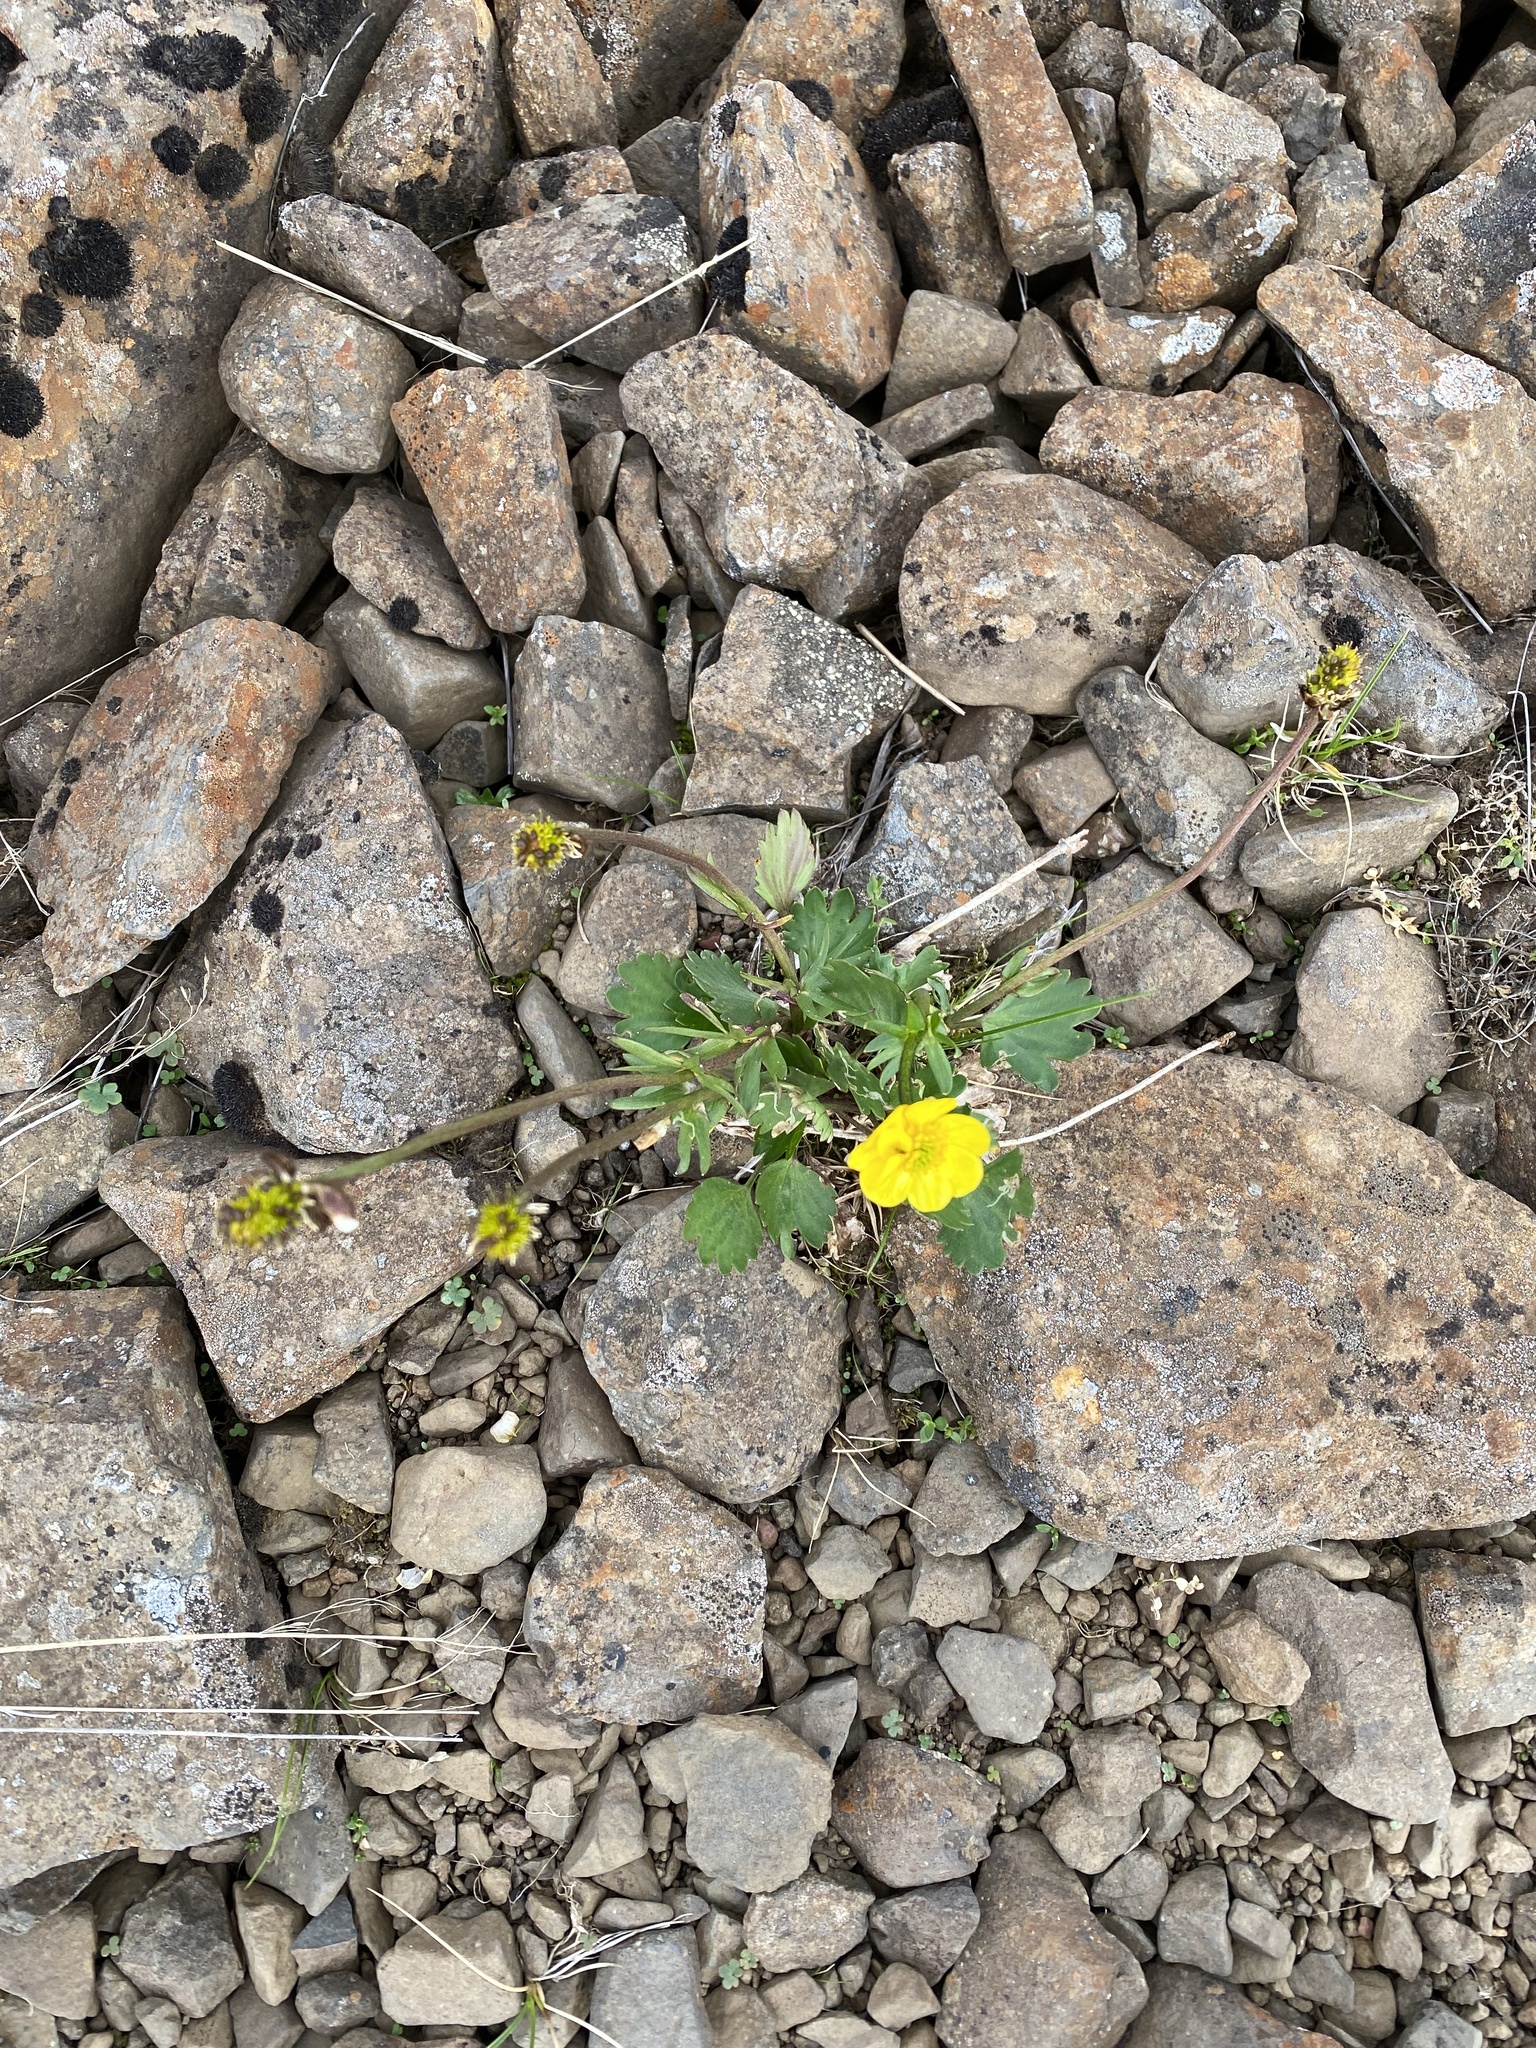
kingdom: Plantae
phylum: Tracheophyta
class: Magnoliopsida
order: Ranunculales
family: Ranunculaceae
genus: Ranunculus
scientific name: Ranunculus sulphureus
